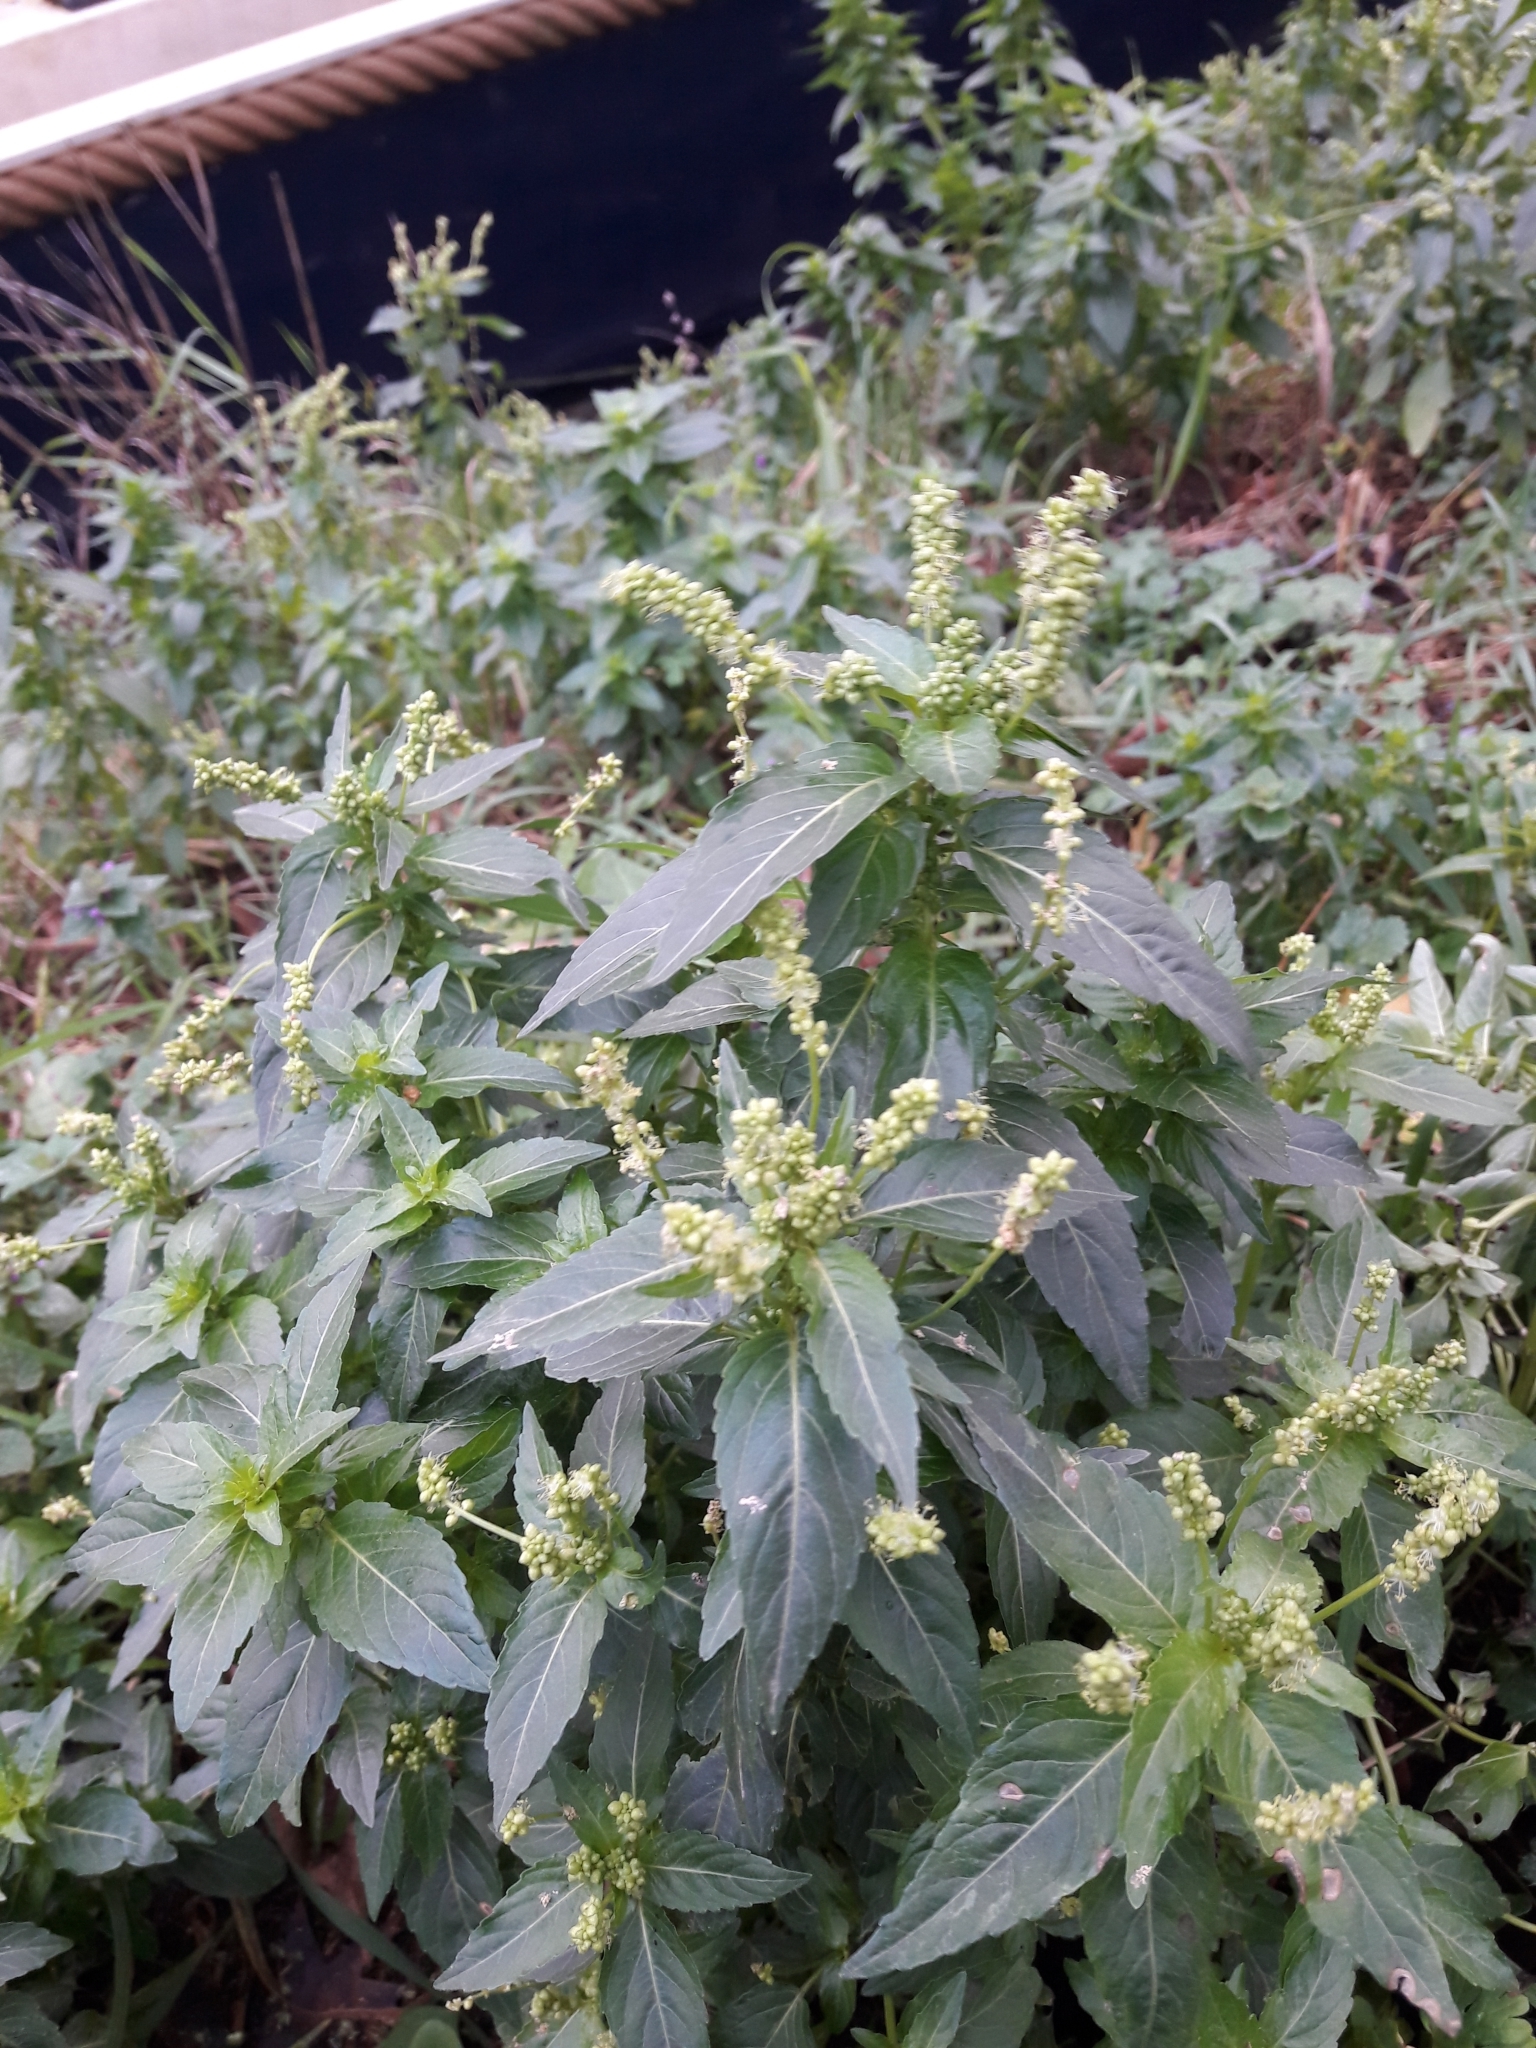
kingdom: Plantae
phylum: Tracheophyta
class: Magnoliopsida
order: Malpighiales
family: Euphorbiaceae
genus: Mercurialis
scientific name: Mercurialis annua
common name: Annual mercury
